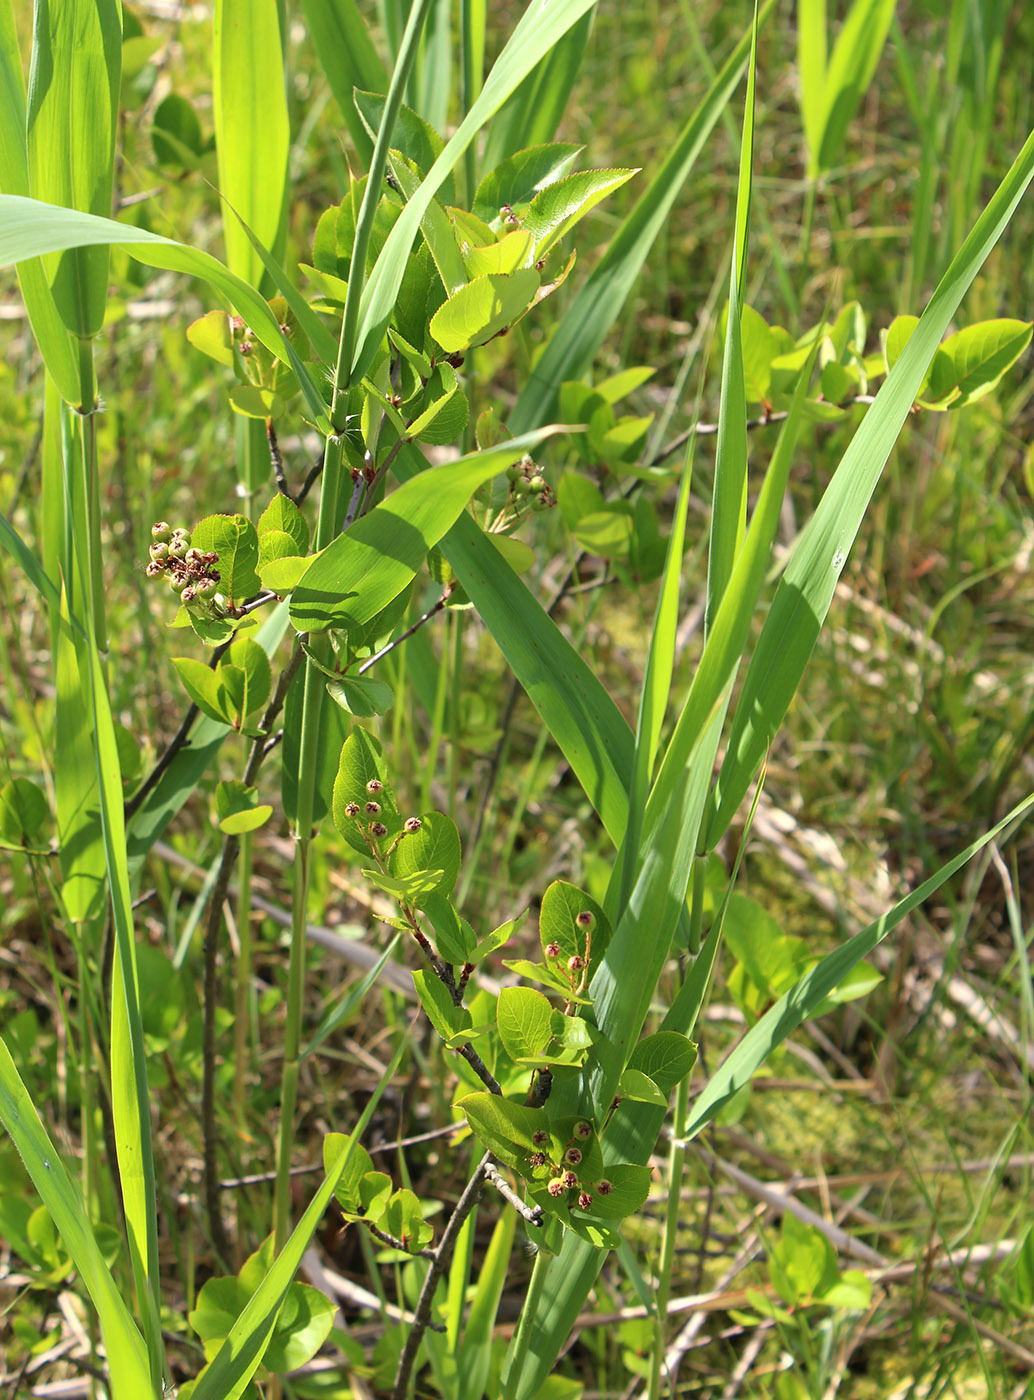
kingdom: Plantae
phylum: Tracheophyta
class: Magnoliopsida
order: Rosales
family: Rosaceae
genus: Sorbaronia
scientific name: Sorbaronia arsenii
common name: Arsène's mountain-ash
